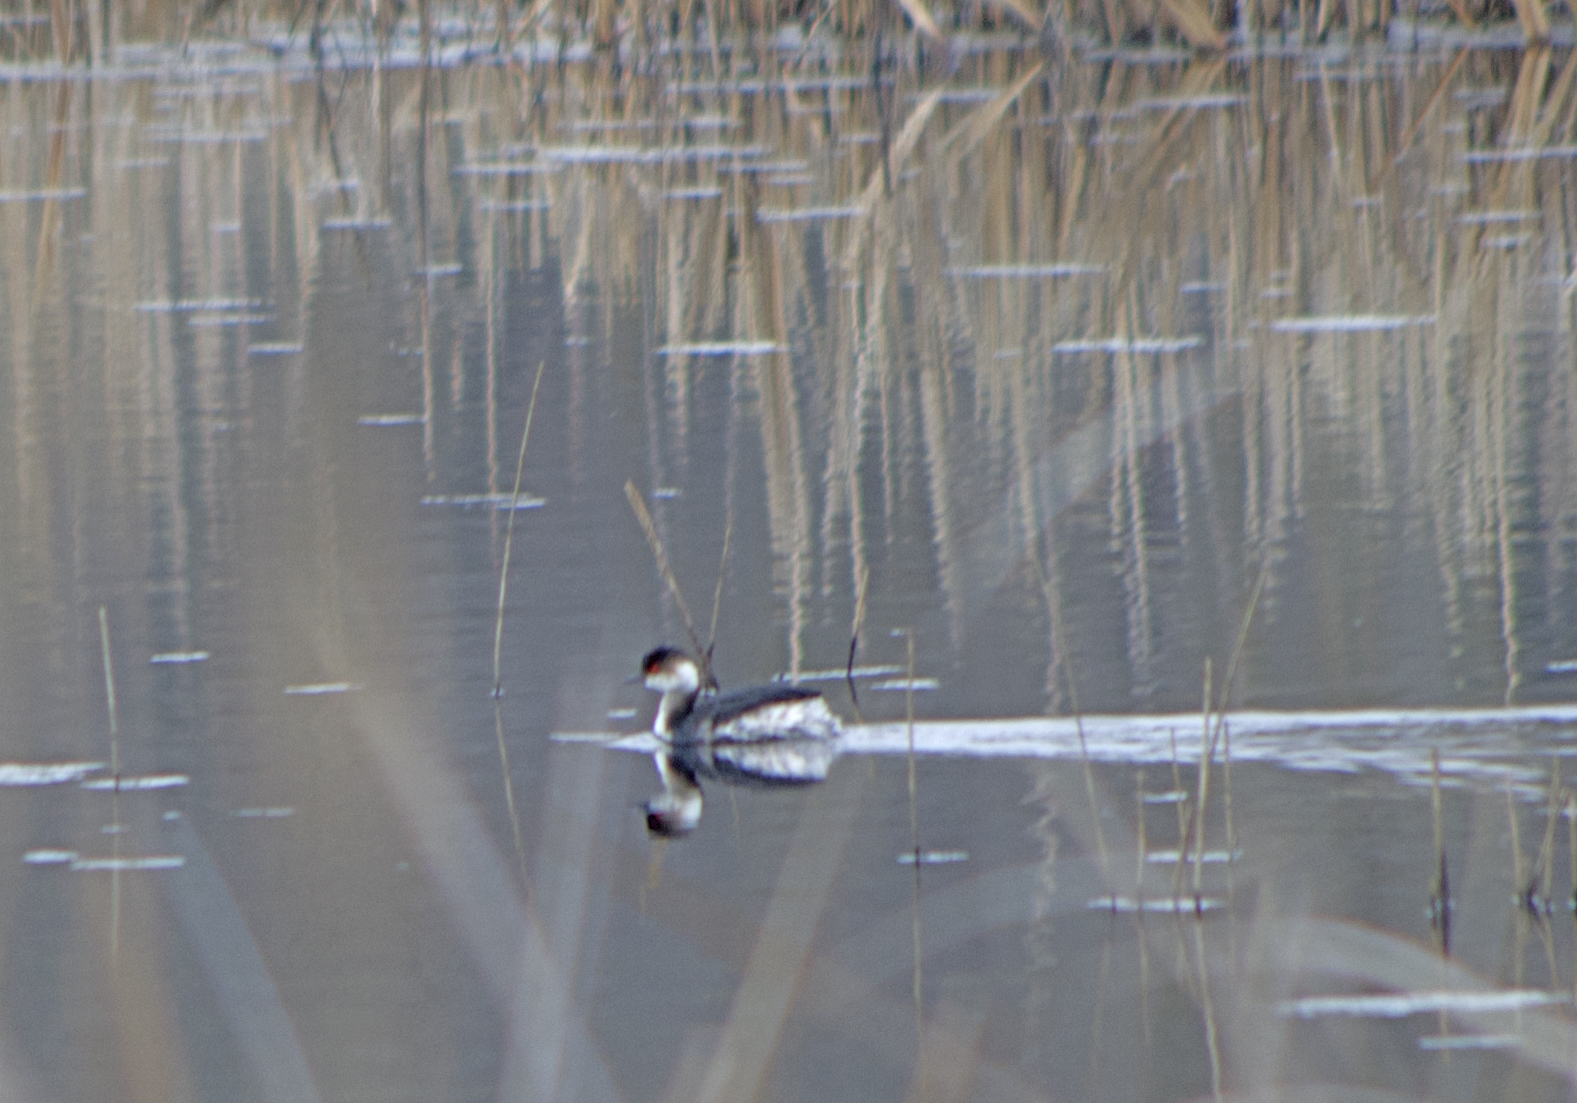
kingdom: Animalia
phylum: Chordata
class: Aves
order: Podicipediformes
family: Podicipedidae
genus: Podiceps
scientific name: Podiceps nigricollis
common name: Black-necked grebe
